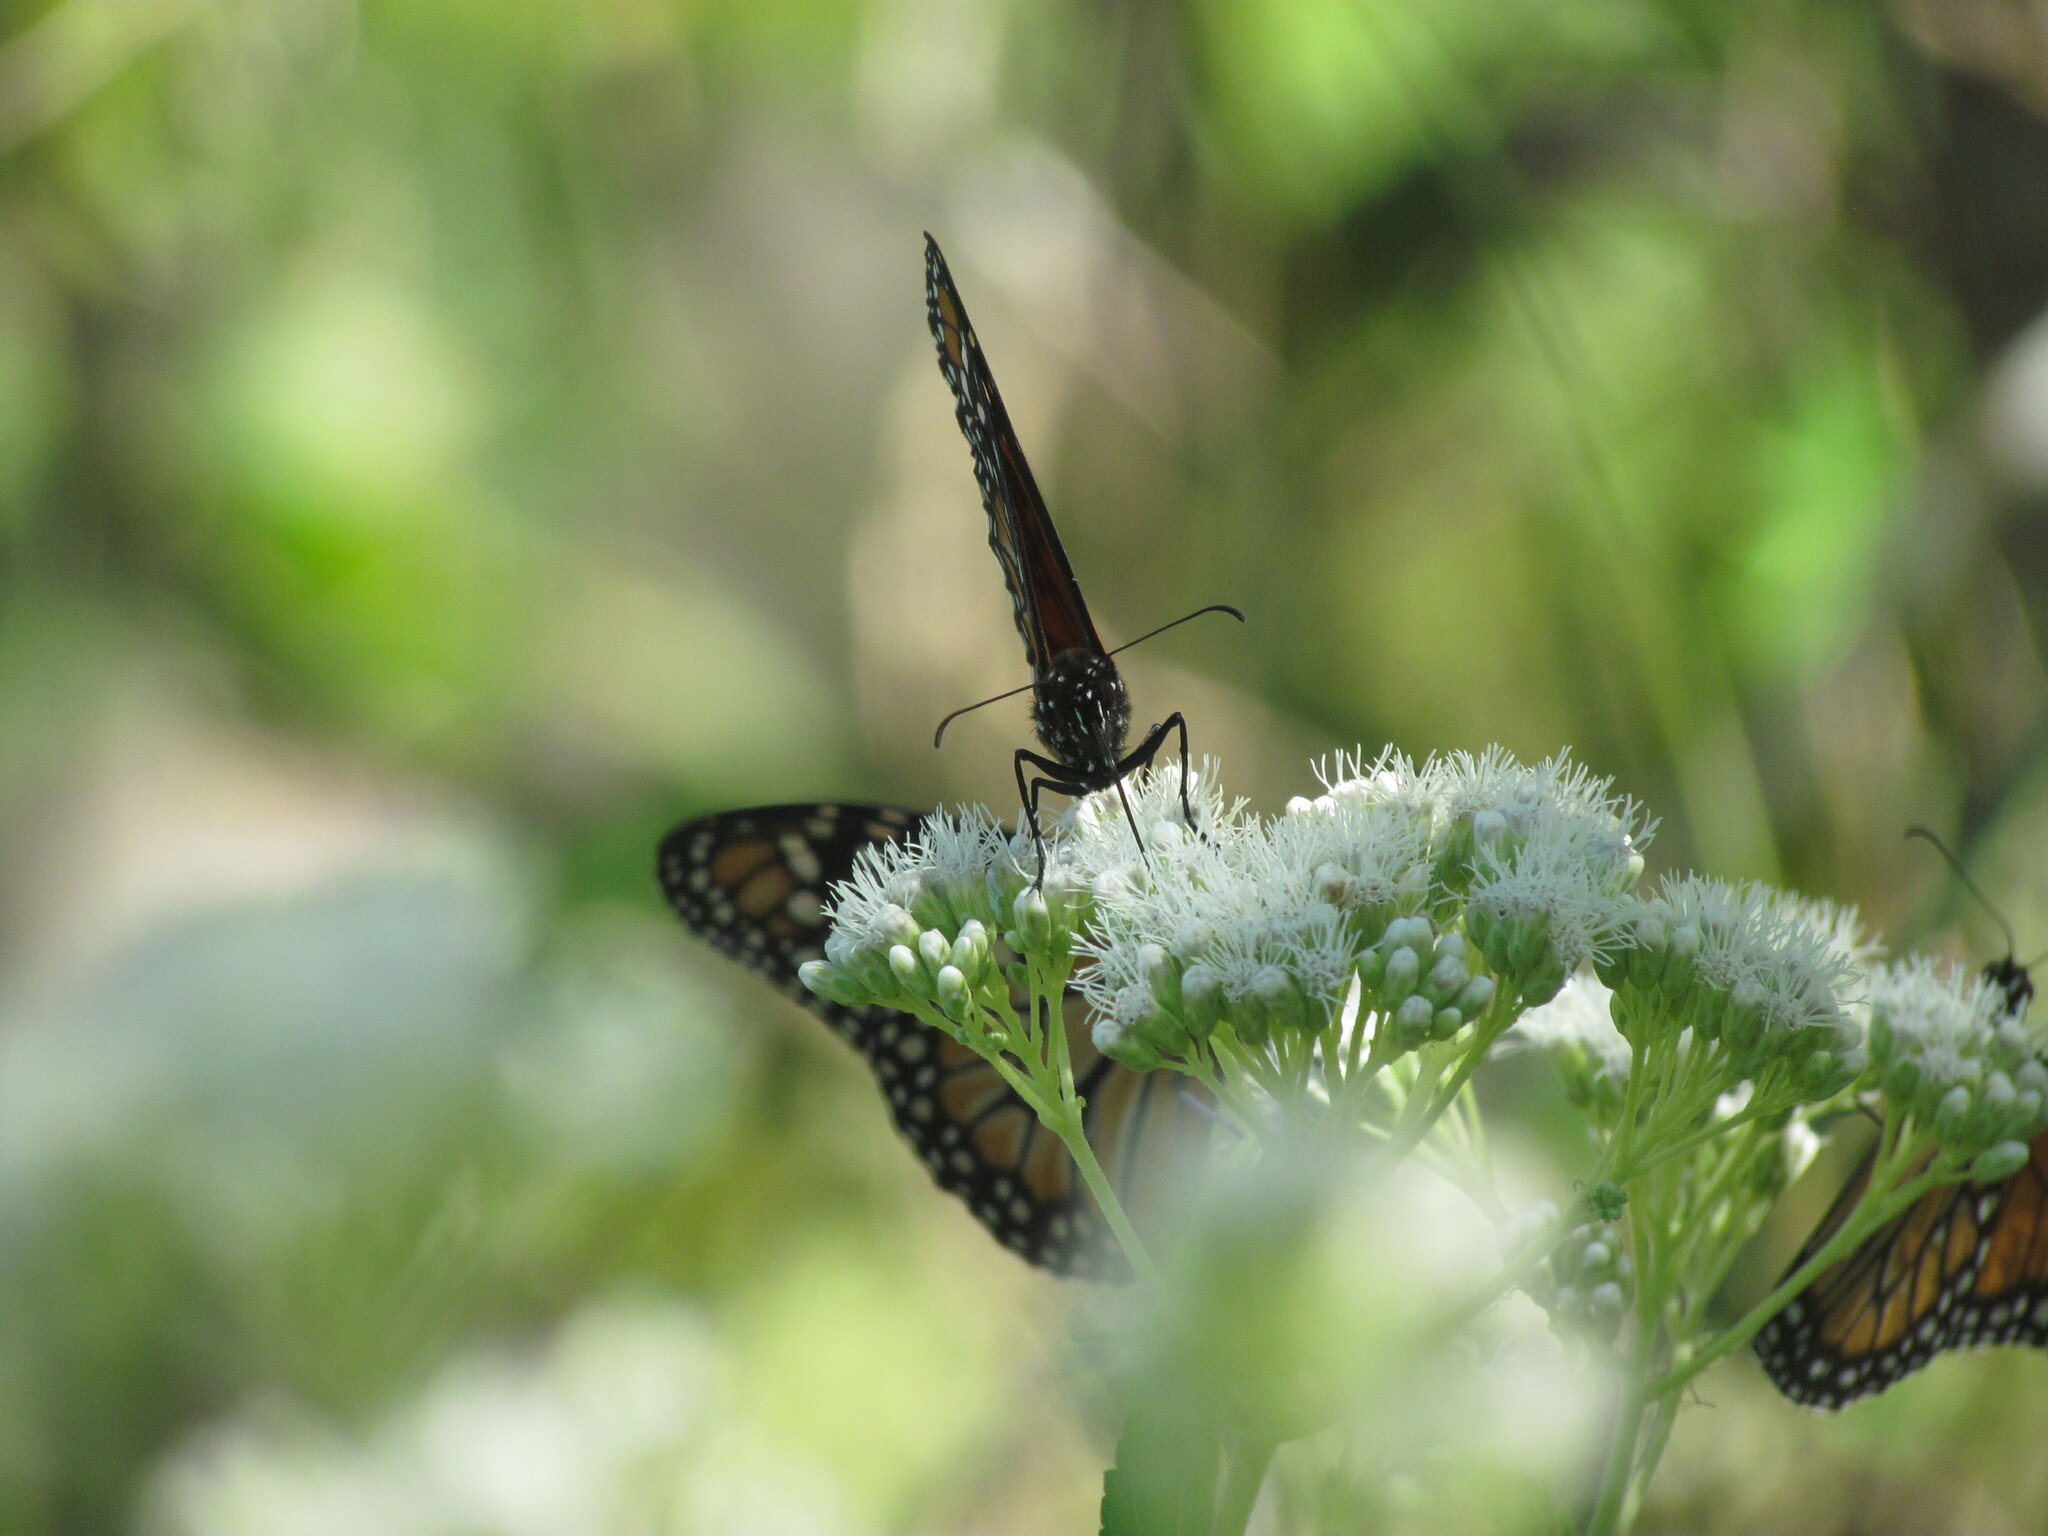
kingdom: Animalia
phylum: Arthropoda
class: Insecta
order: Lepidoptera
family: Nymphalidae
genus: Danaus
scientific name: Danaus erippus
